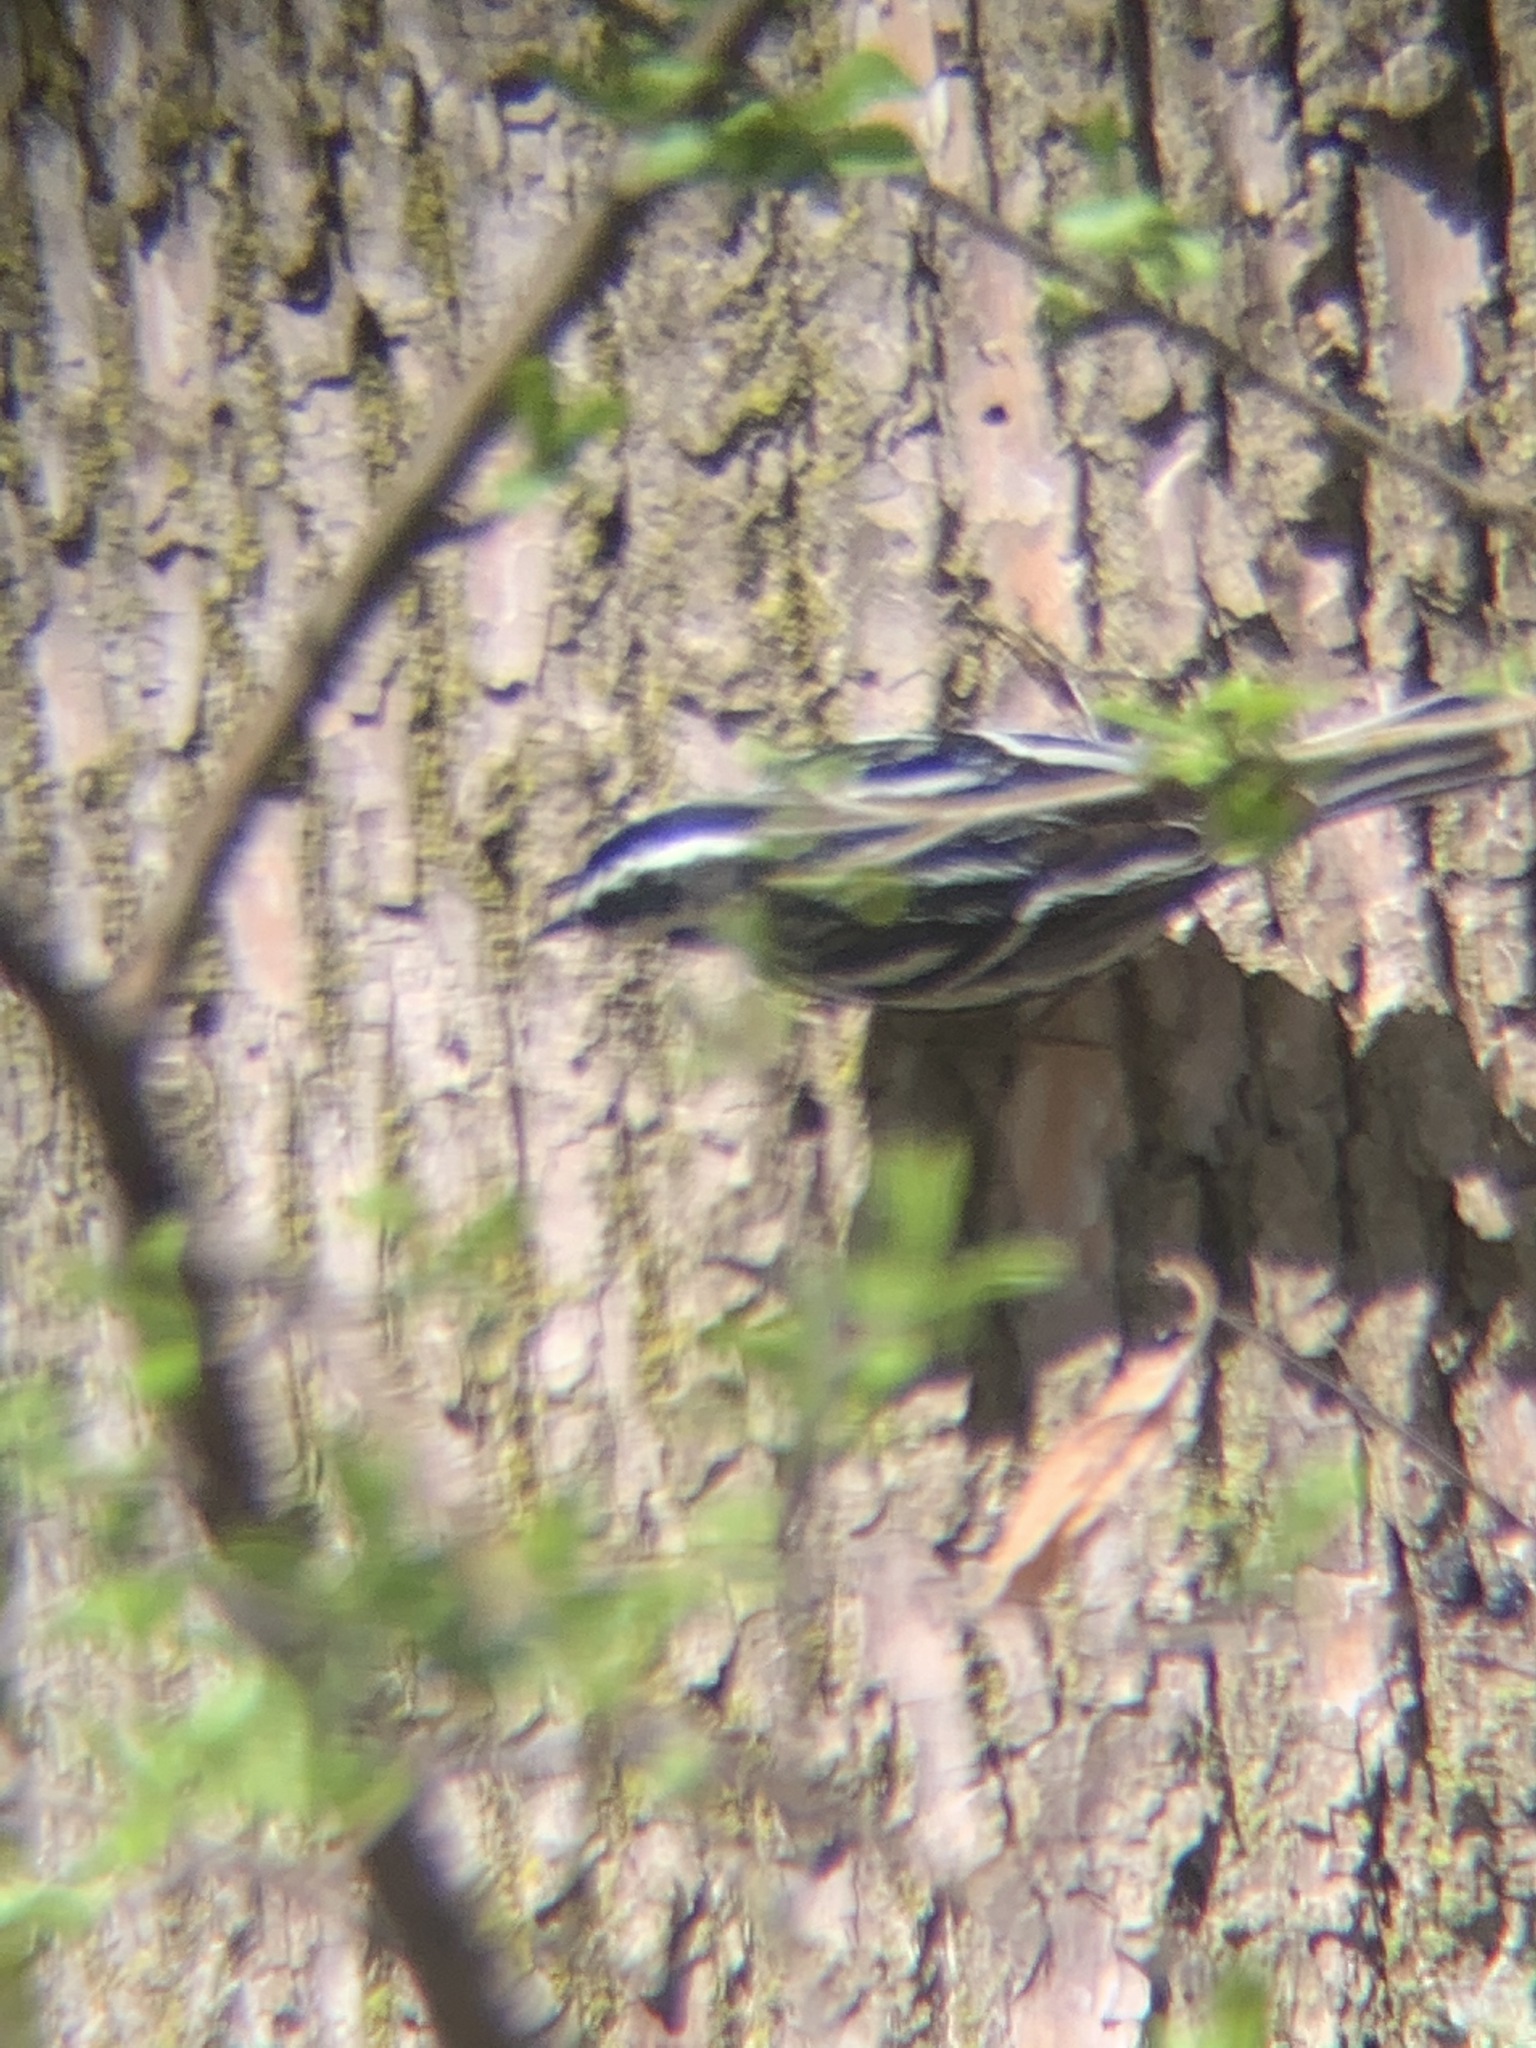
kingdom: Animalia
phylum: Chordata
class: Aves
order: Passeriformes
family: Parulidae
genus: Mniotilta
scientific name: Mniotilta varia
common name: Black-and-white warbler
